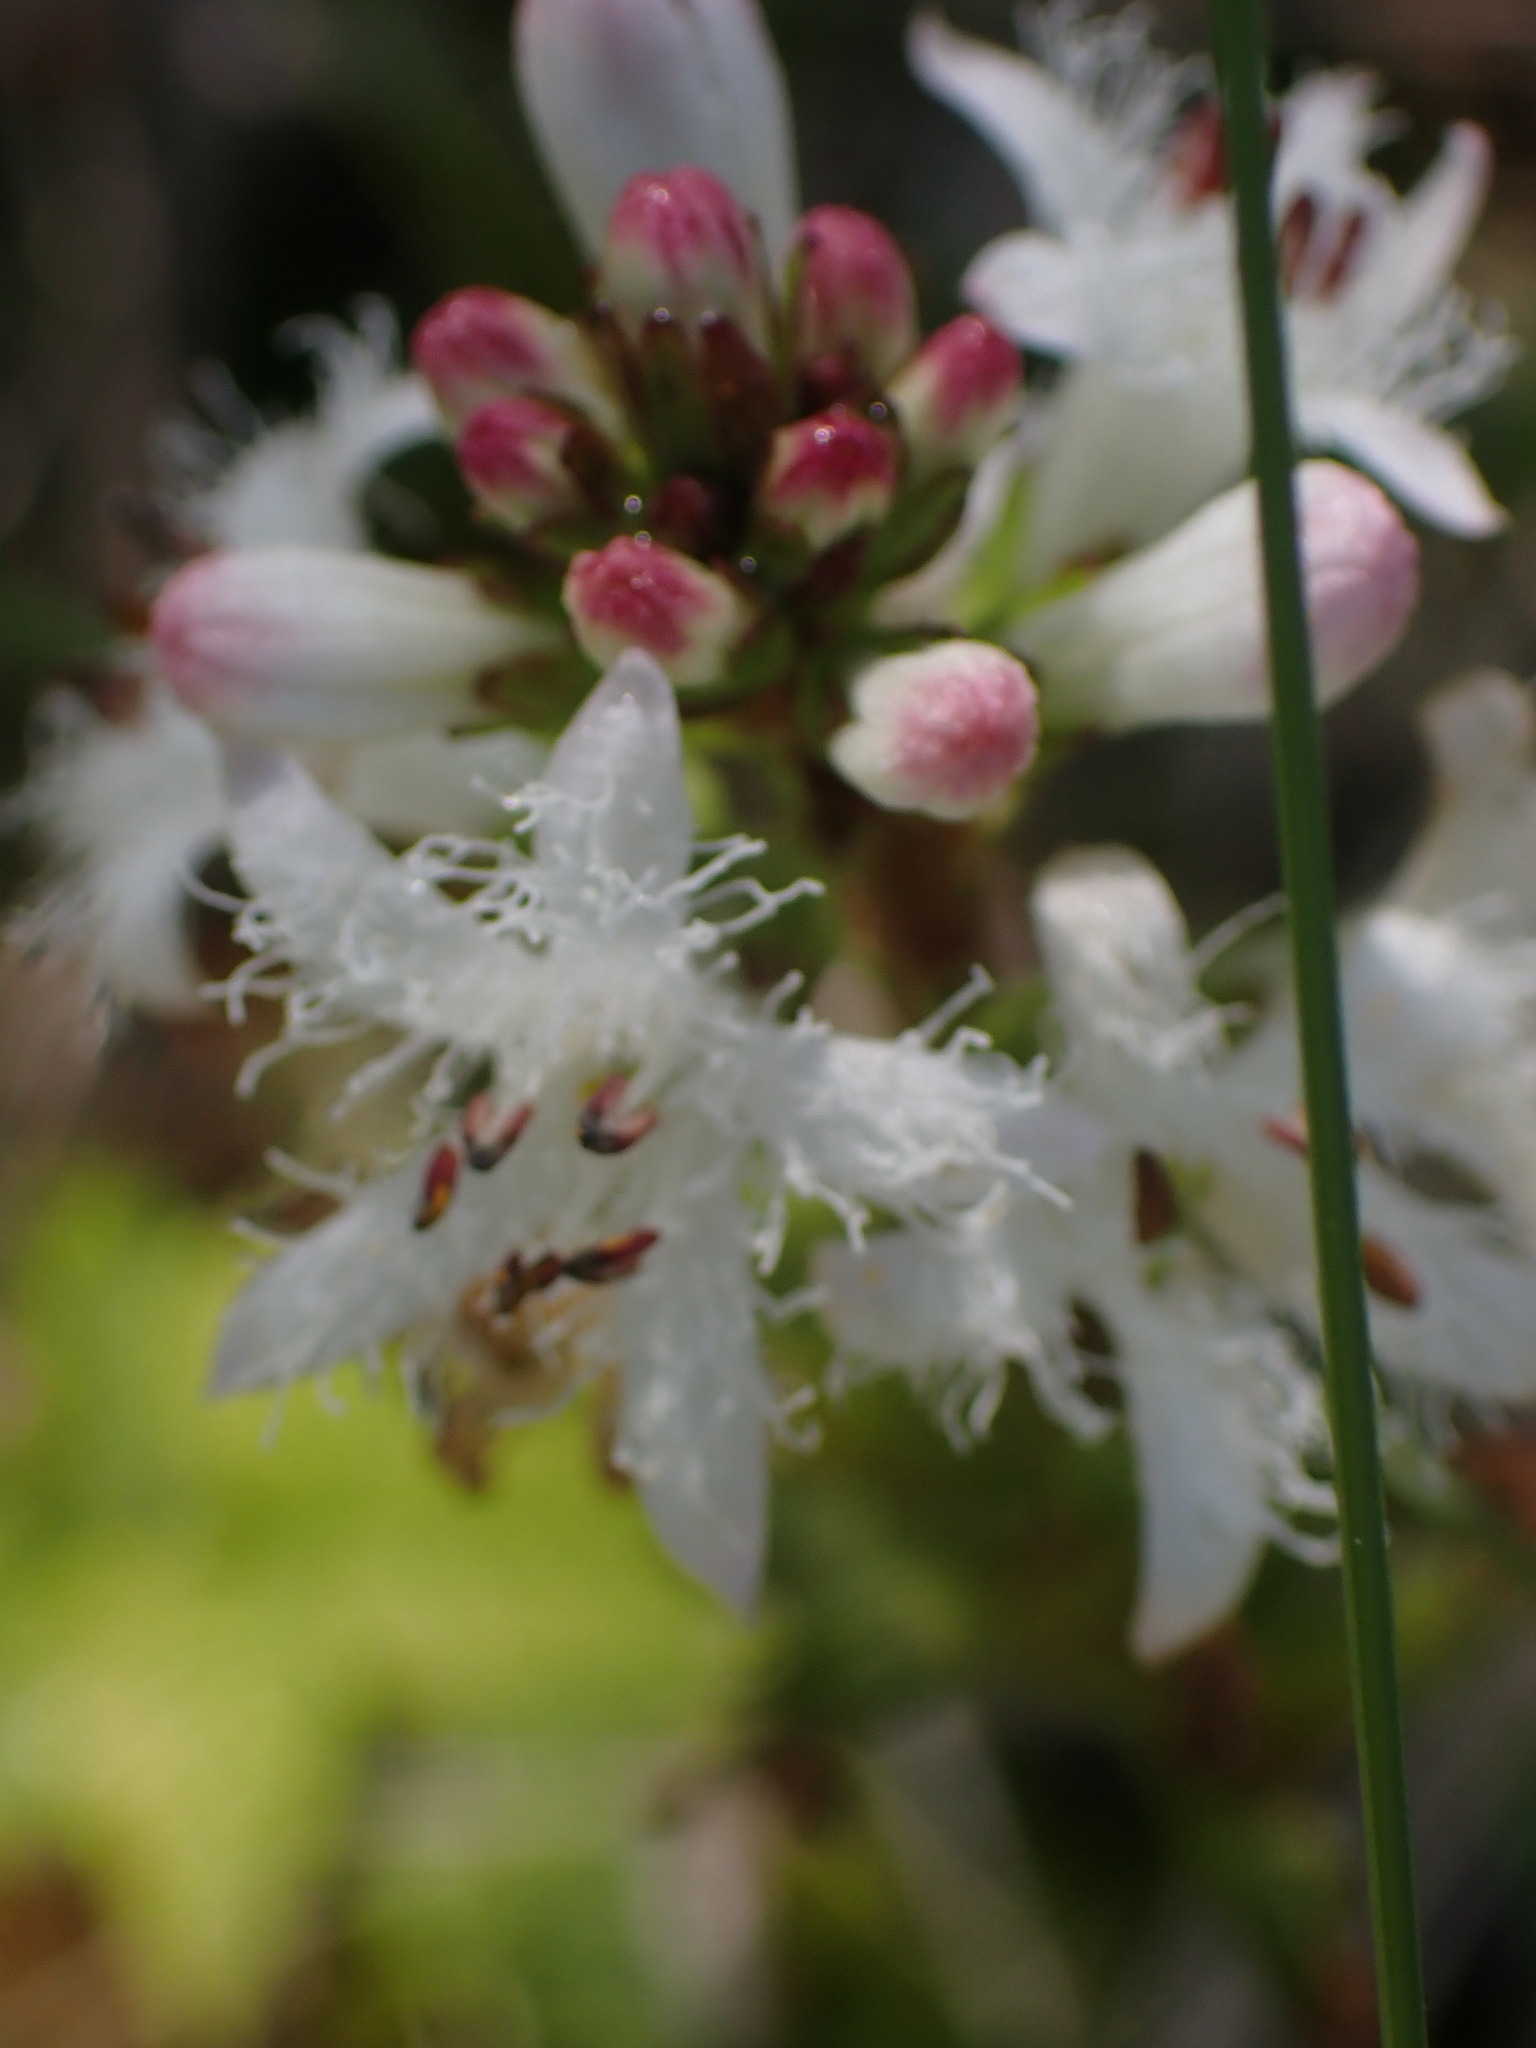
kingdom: Plantae
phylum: Tracheophyta
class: Magnoliopsida
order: Asterales
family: Menyanthaceae
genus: Menyanthes
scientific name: Menyanthes trifoliata
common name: Bogbean
